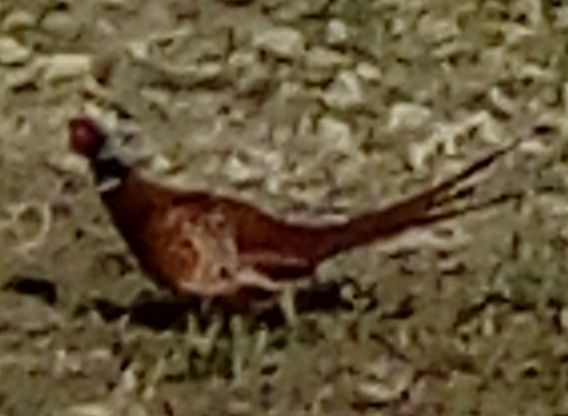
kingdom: Animalia
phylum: Chordata
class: Aves
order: Galliformes
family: Phasianidae
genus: Phasianus
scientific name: Phasianus colchicus
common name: Common pheasant
